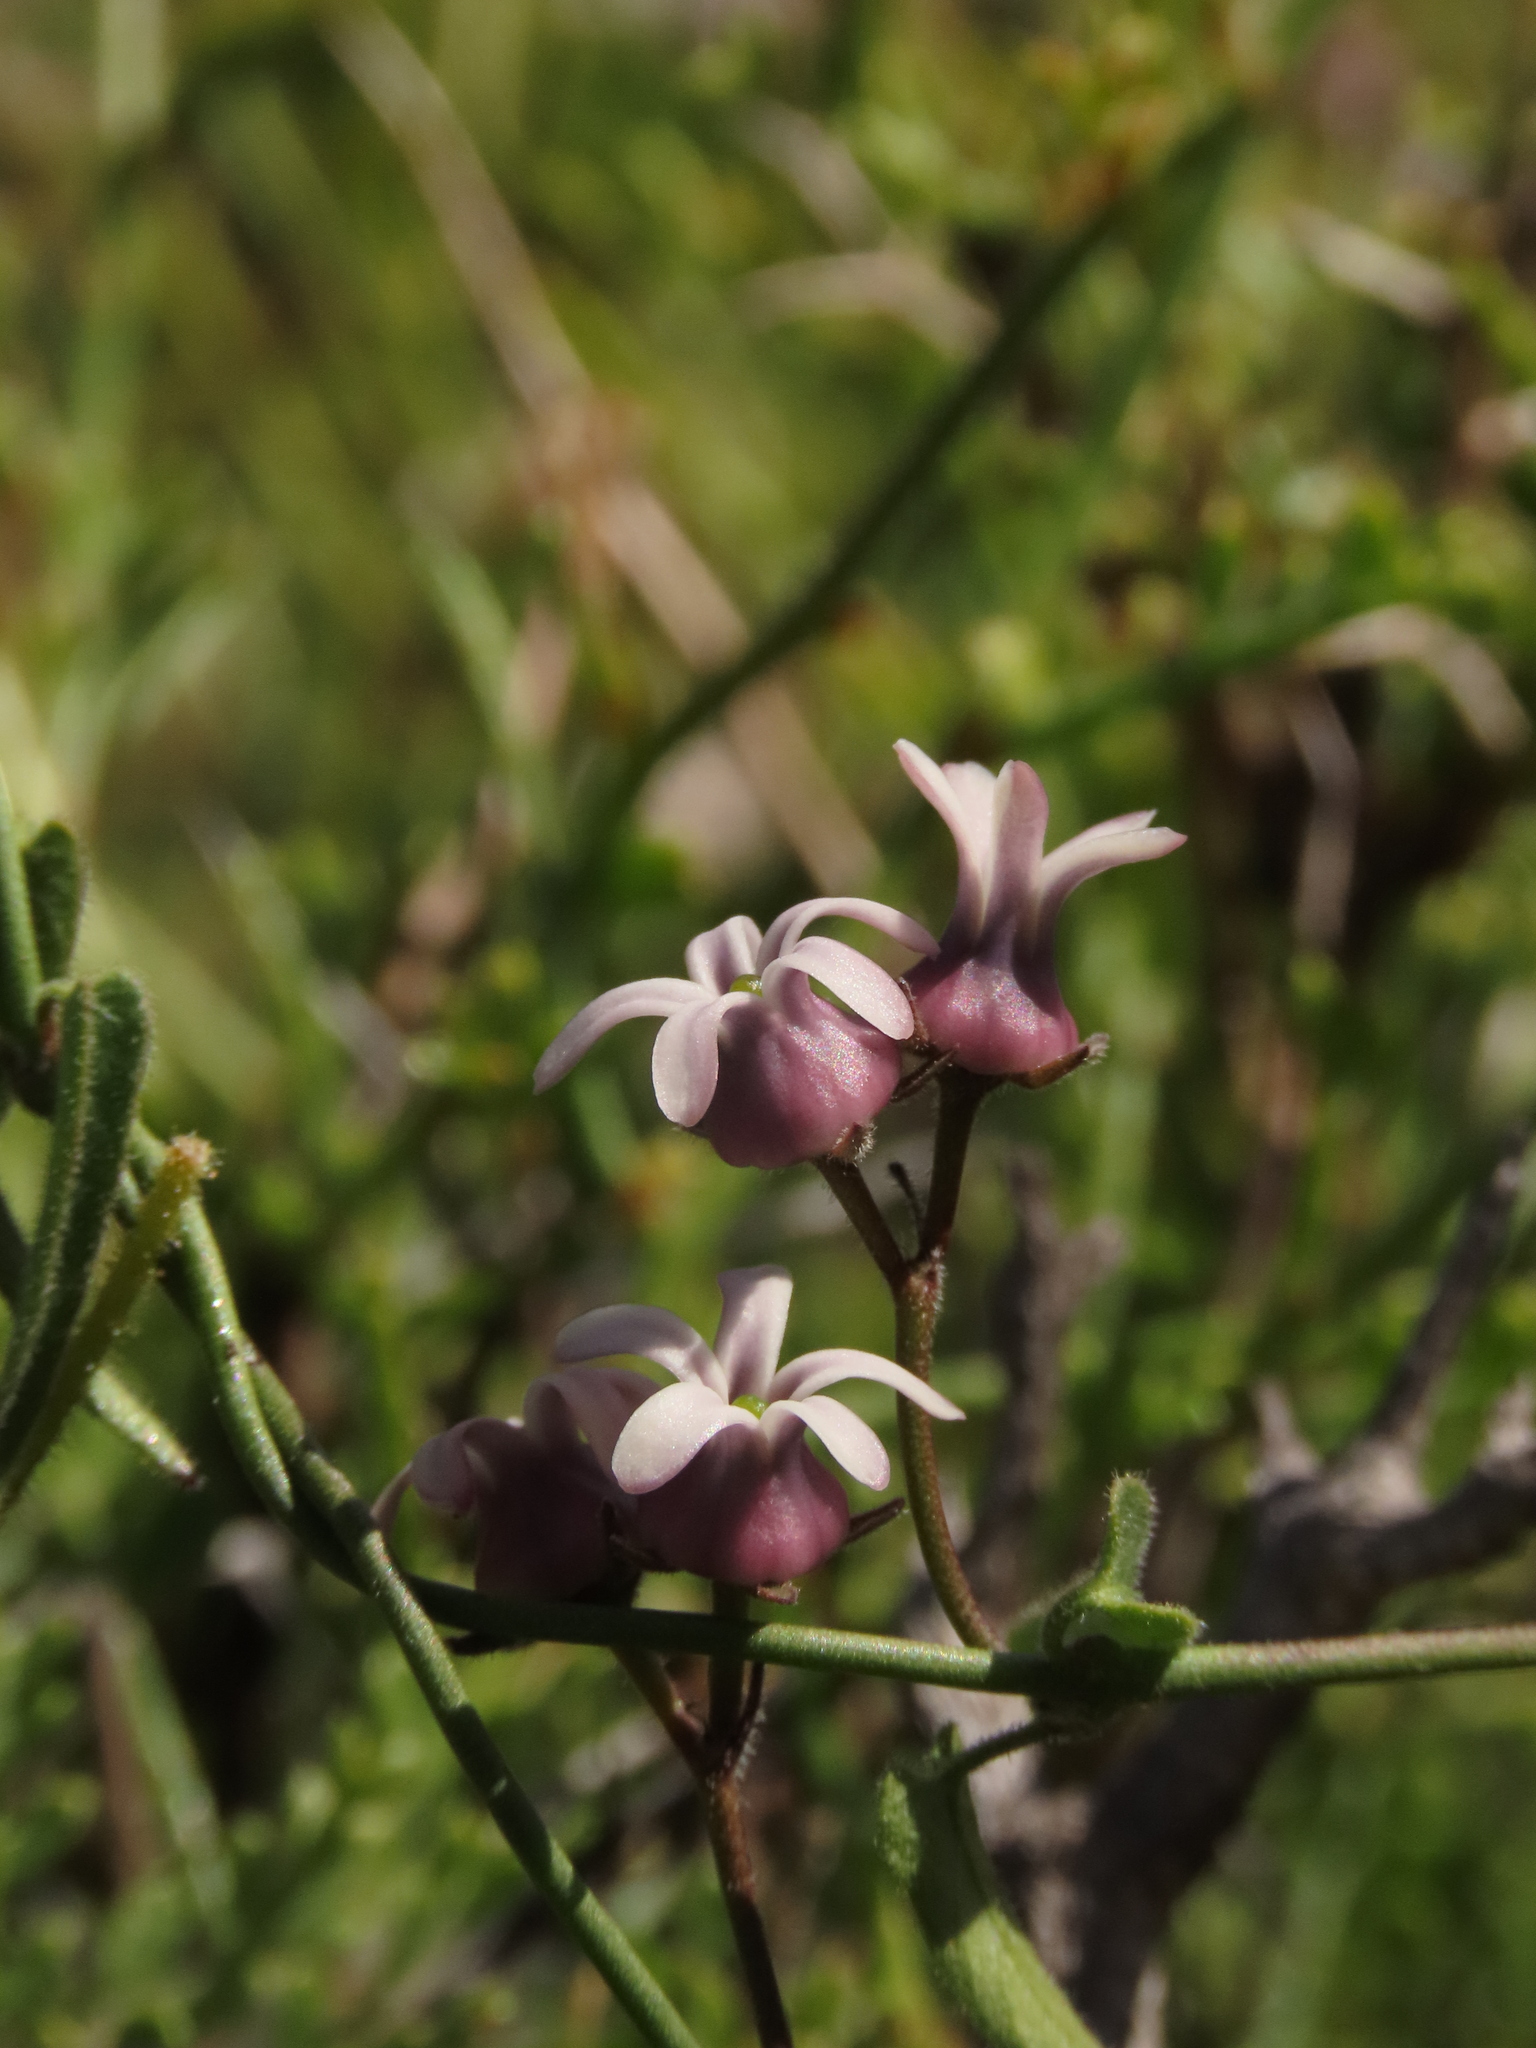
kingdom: Plantae
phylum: Tracheophyta
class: Magnoliopsida
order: Gentianales
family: Apocynaceae
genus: Diplolepis
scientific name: Diplolepis geminiflora
